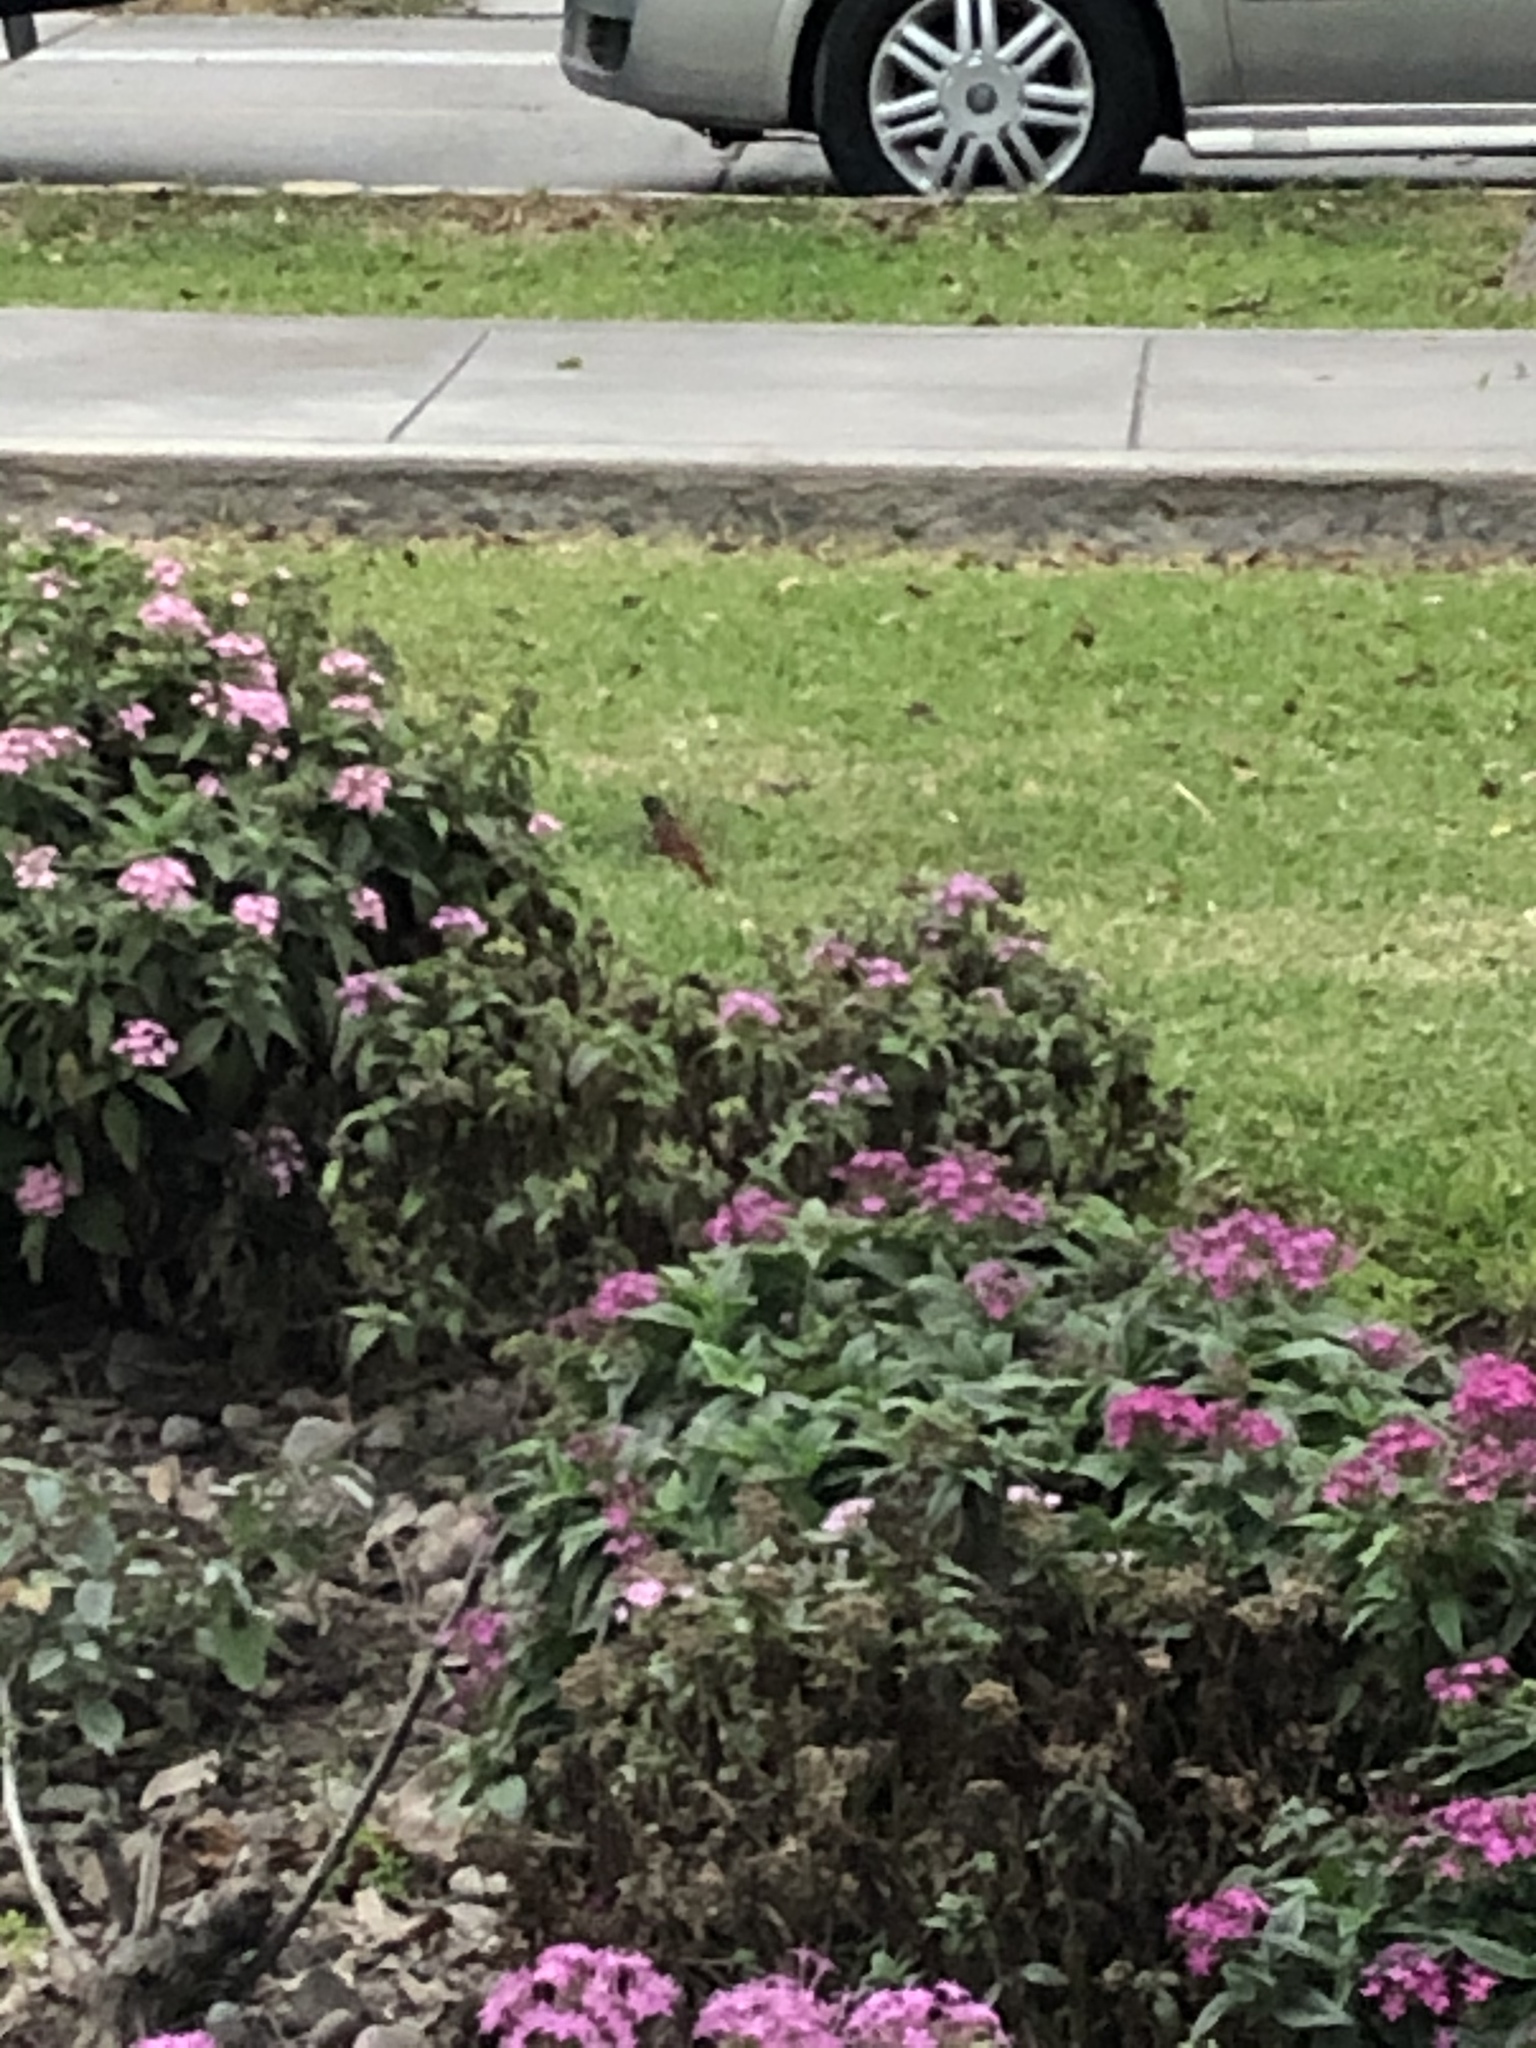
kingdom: Animalia
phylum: Chordata
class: Aves
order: Apodiformes
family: Trochilidae
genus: Amazilis
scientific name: Amazilis amazilia
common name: Amazilia hummingbird
